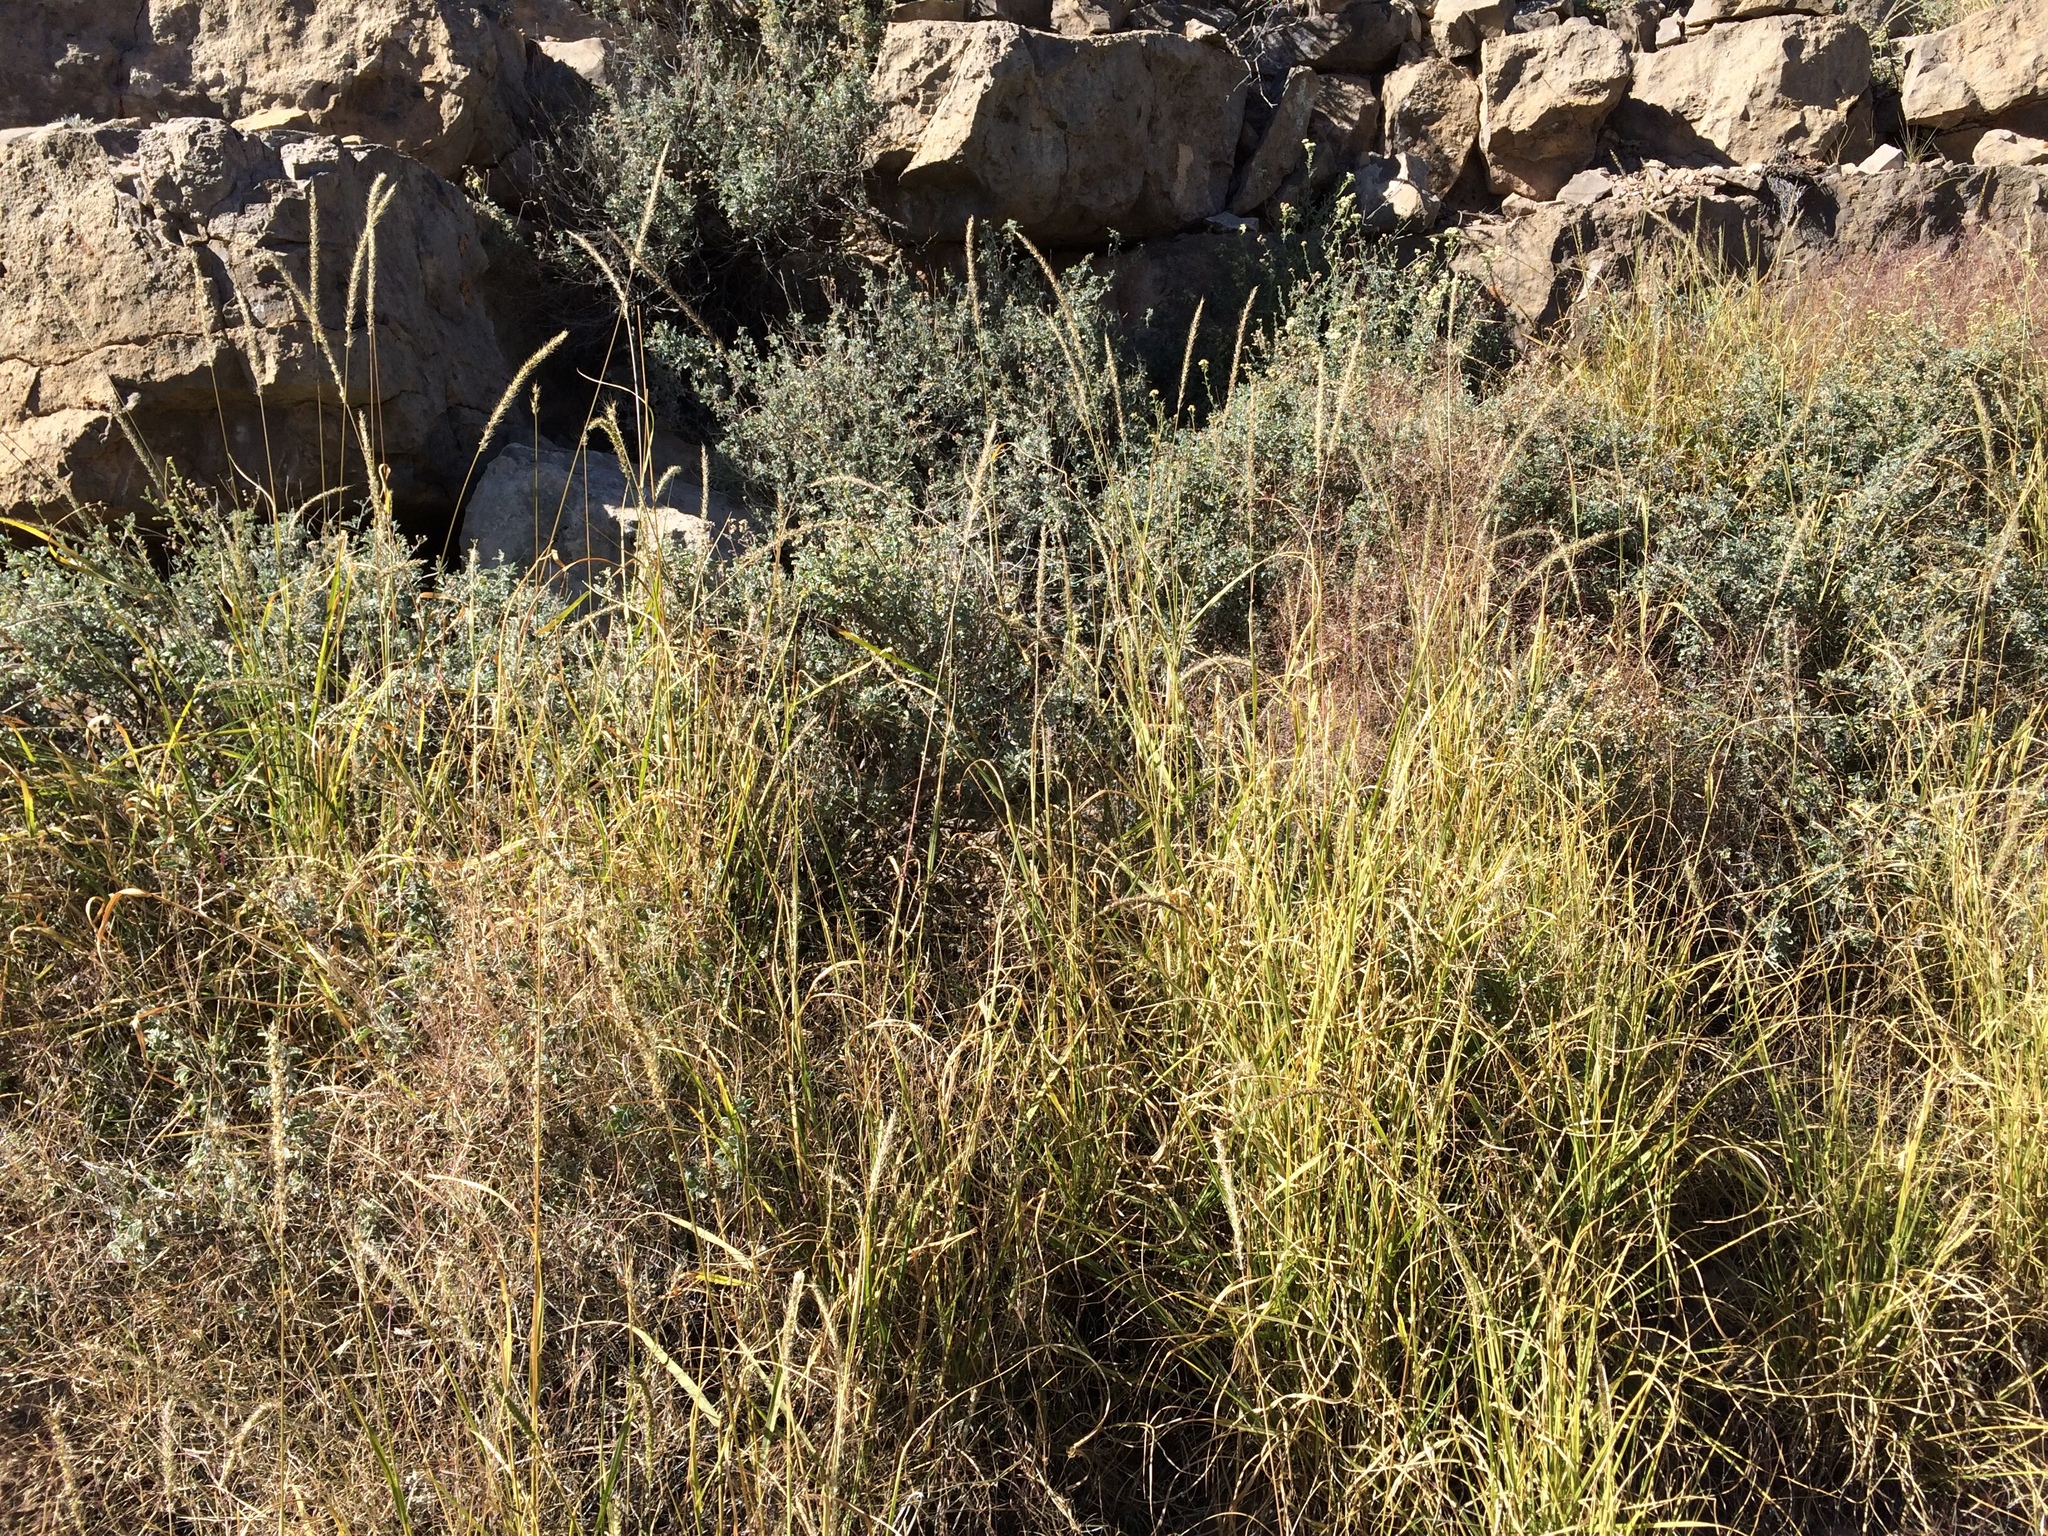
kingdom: Plantae
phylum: Tracheophyta
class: Liliopsida
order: Poales
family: Poaceae
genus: Setaria
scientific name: Setaria leucopila
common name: Plains bristle grass
